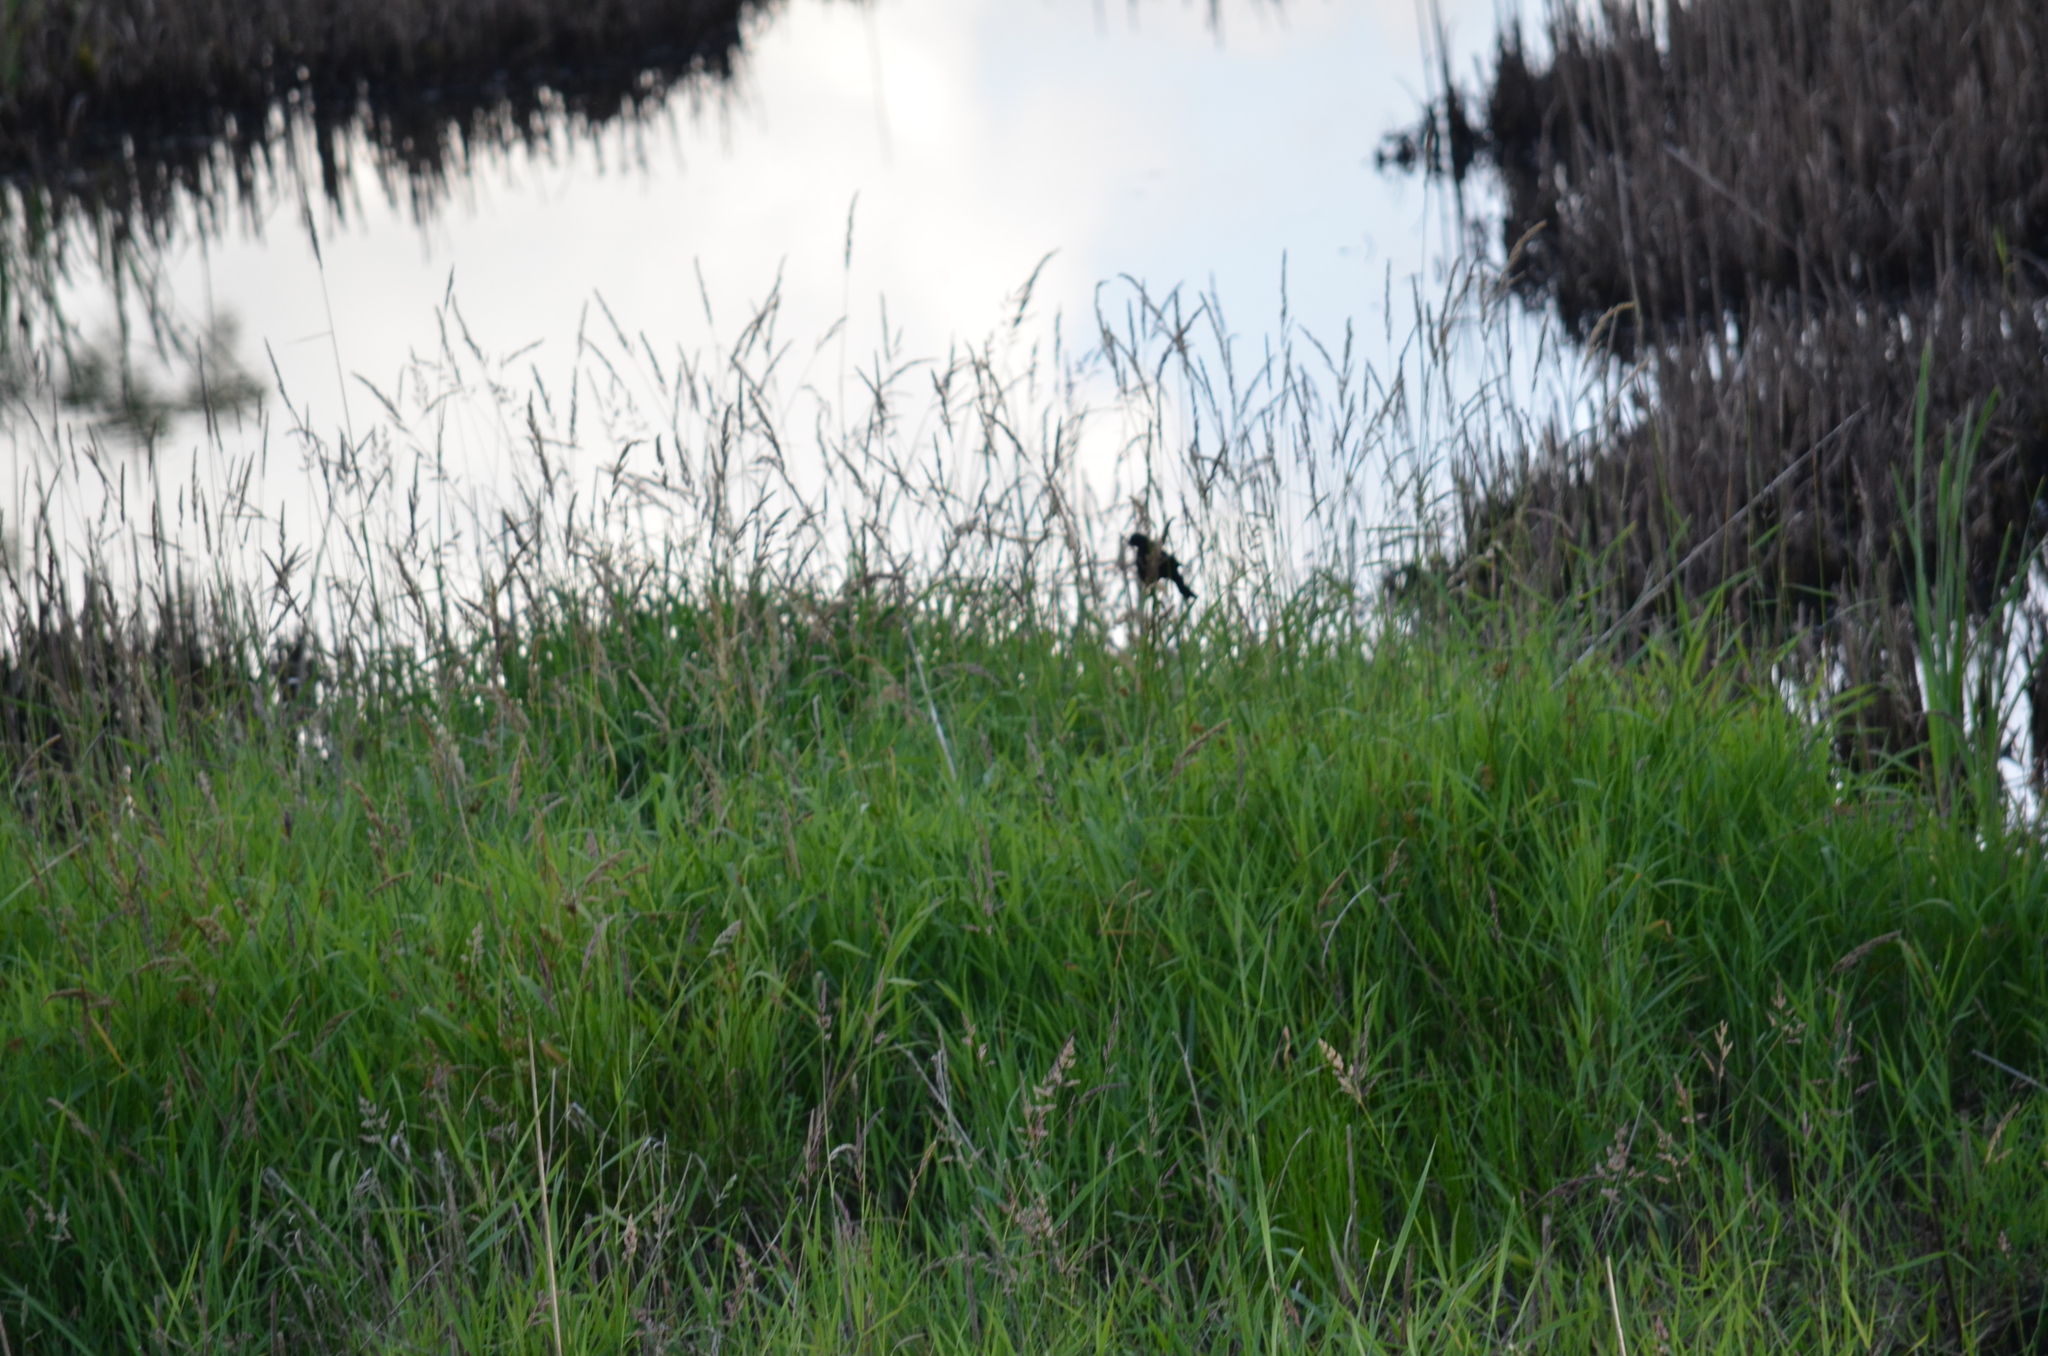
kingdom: Animalia
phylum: Chordata
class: Aves
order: Passeriformes
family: Icteridae
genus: Agelaius
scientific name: Agelaius phoeniceus
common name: Red-winged blackbird
